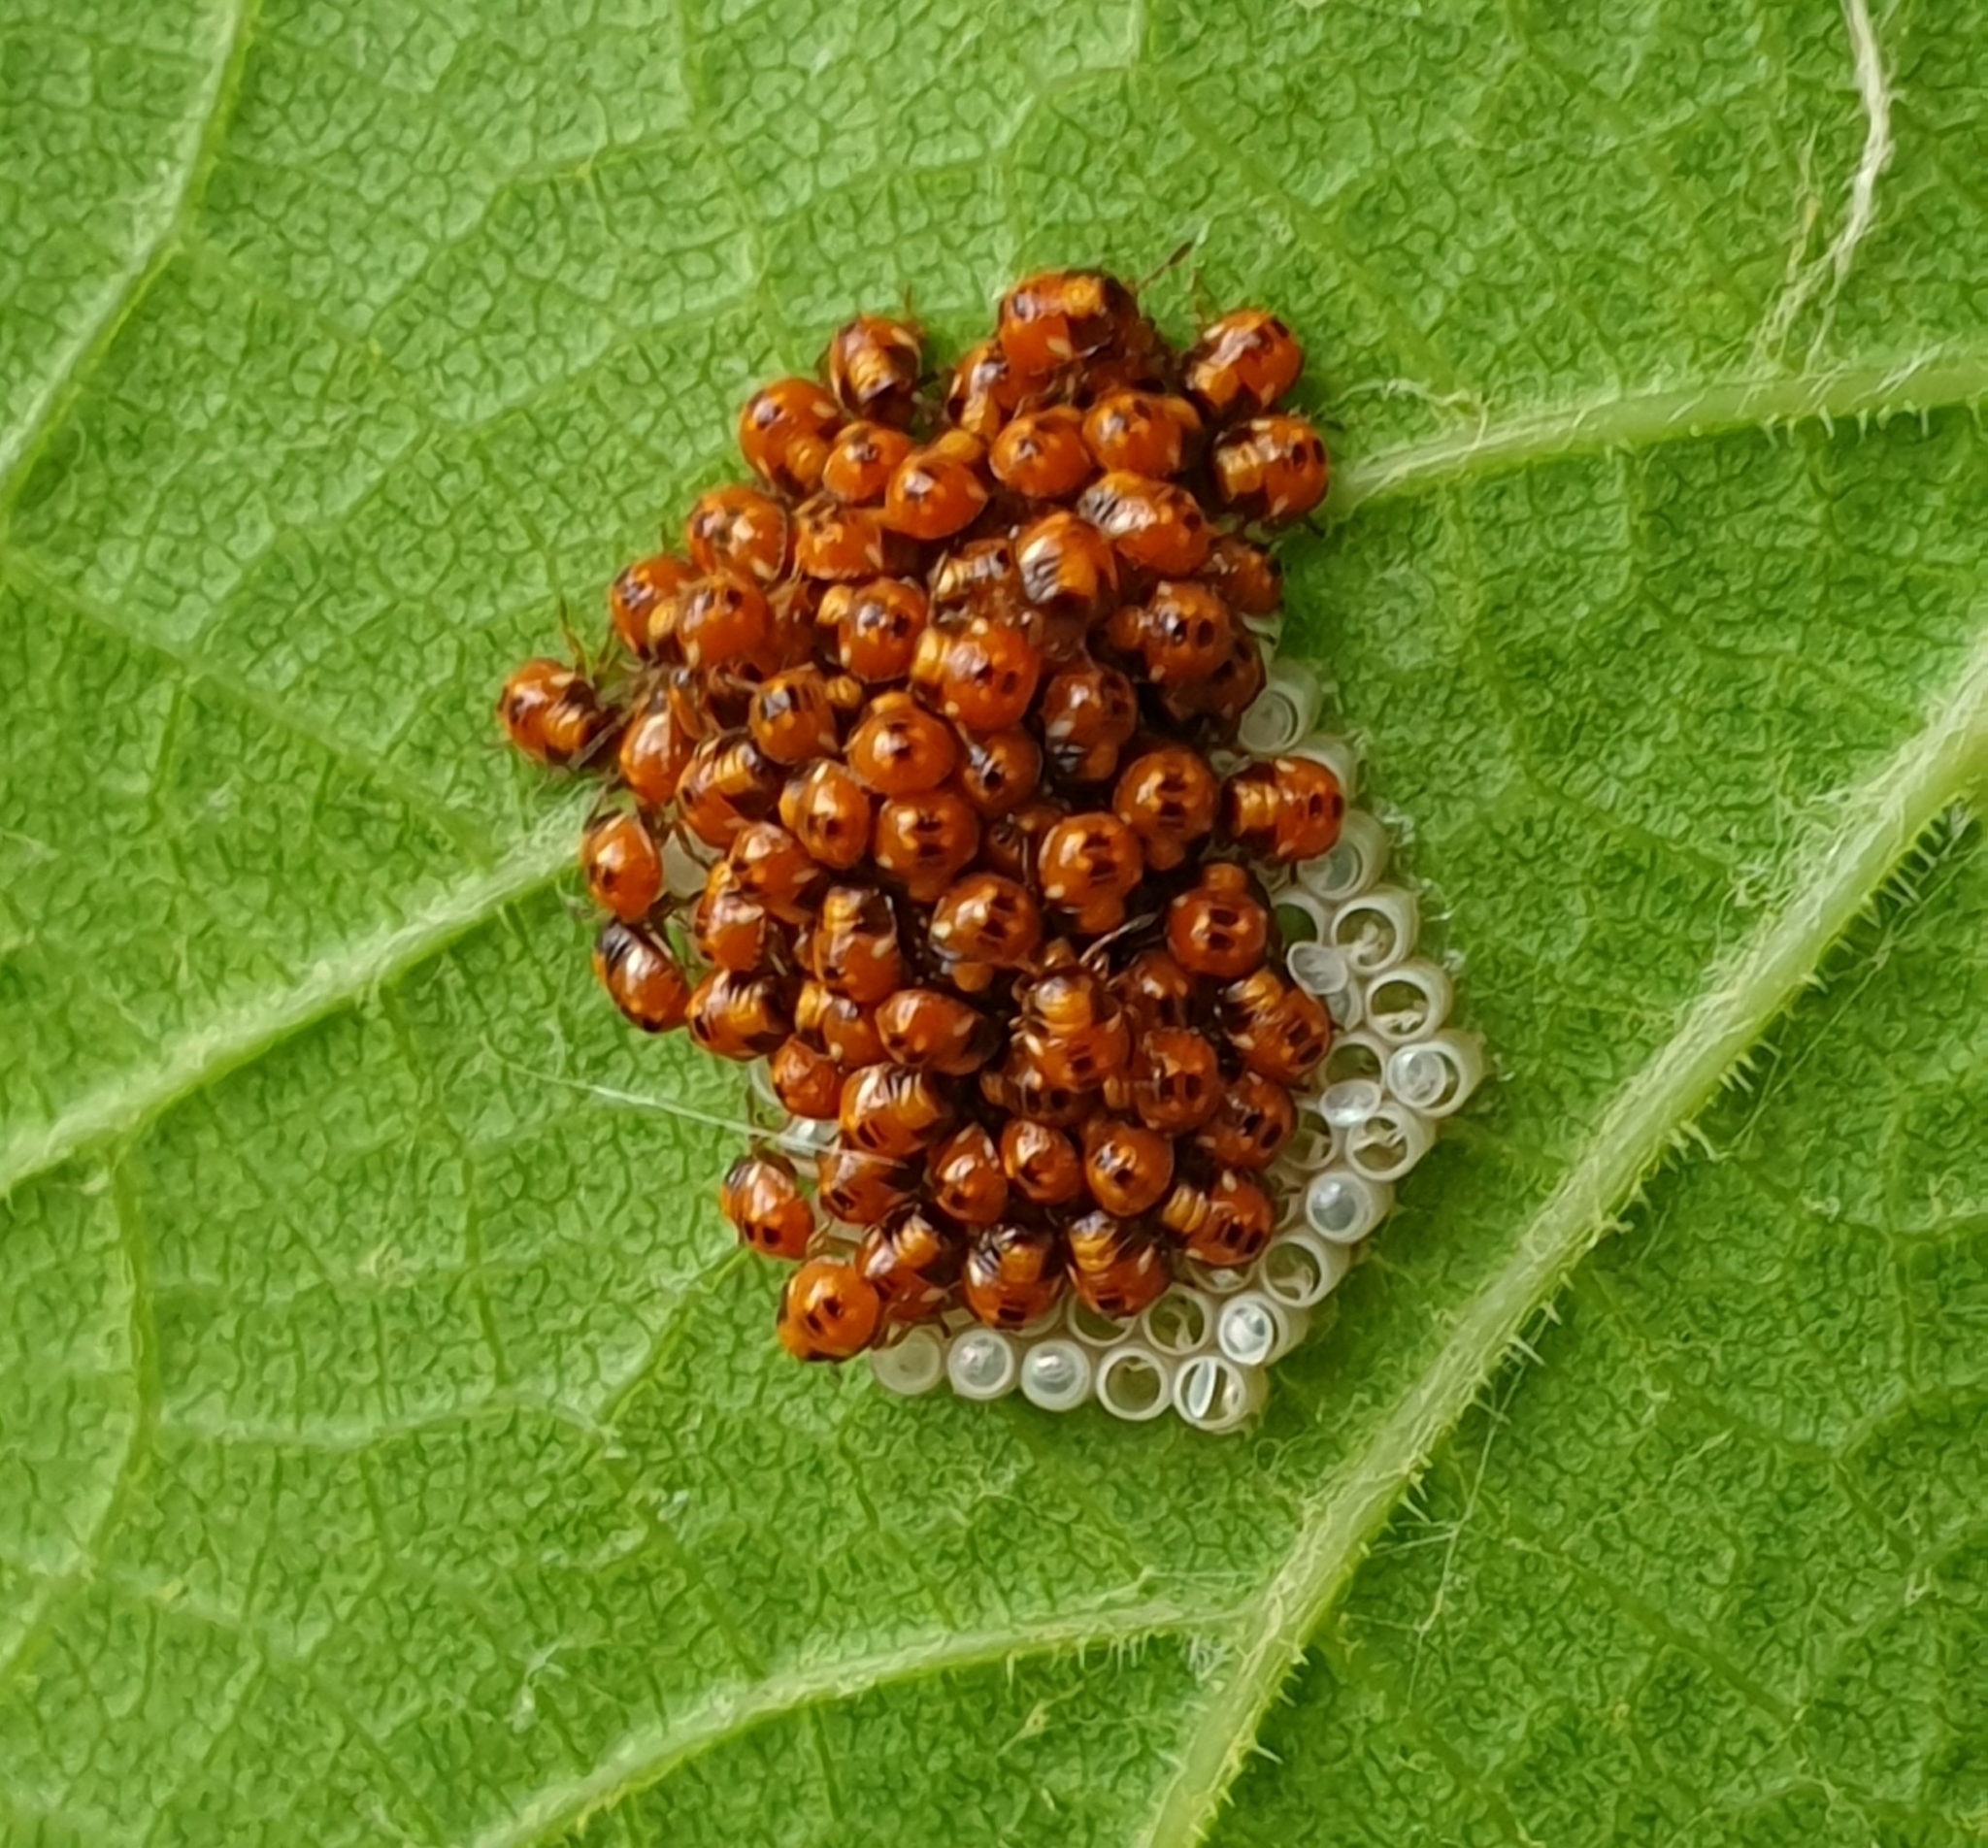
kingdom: Animalia
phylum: Arthropoda
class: Insecta
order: Hemiptera
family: Pentatomidae
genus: Nezara
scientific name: Nezara viridula
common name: Southern green stink bug
